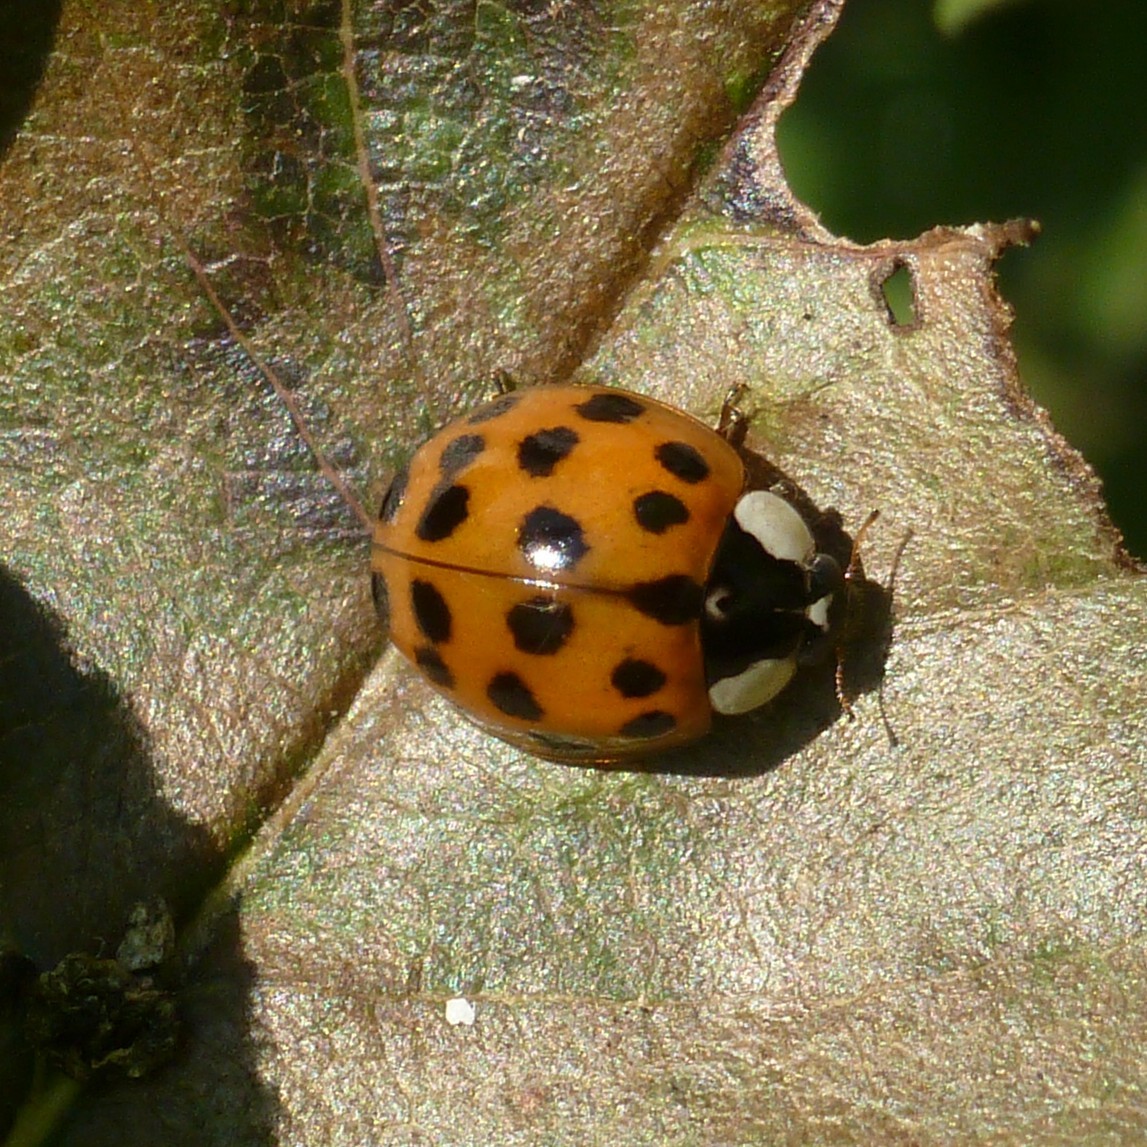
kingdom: Animalia
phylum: Arthropoda
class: Insecta
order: Coleoptera
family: Coccinellidae
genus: Harmonia
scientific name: Harmonia axyridis
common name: Harlequin ladybird
